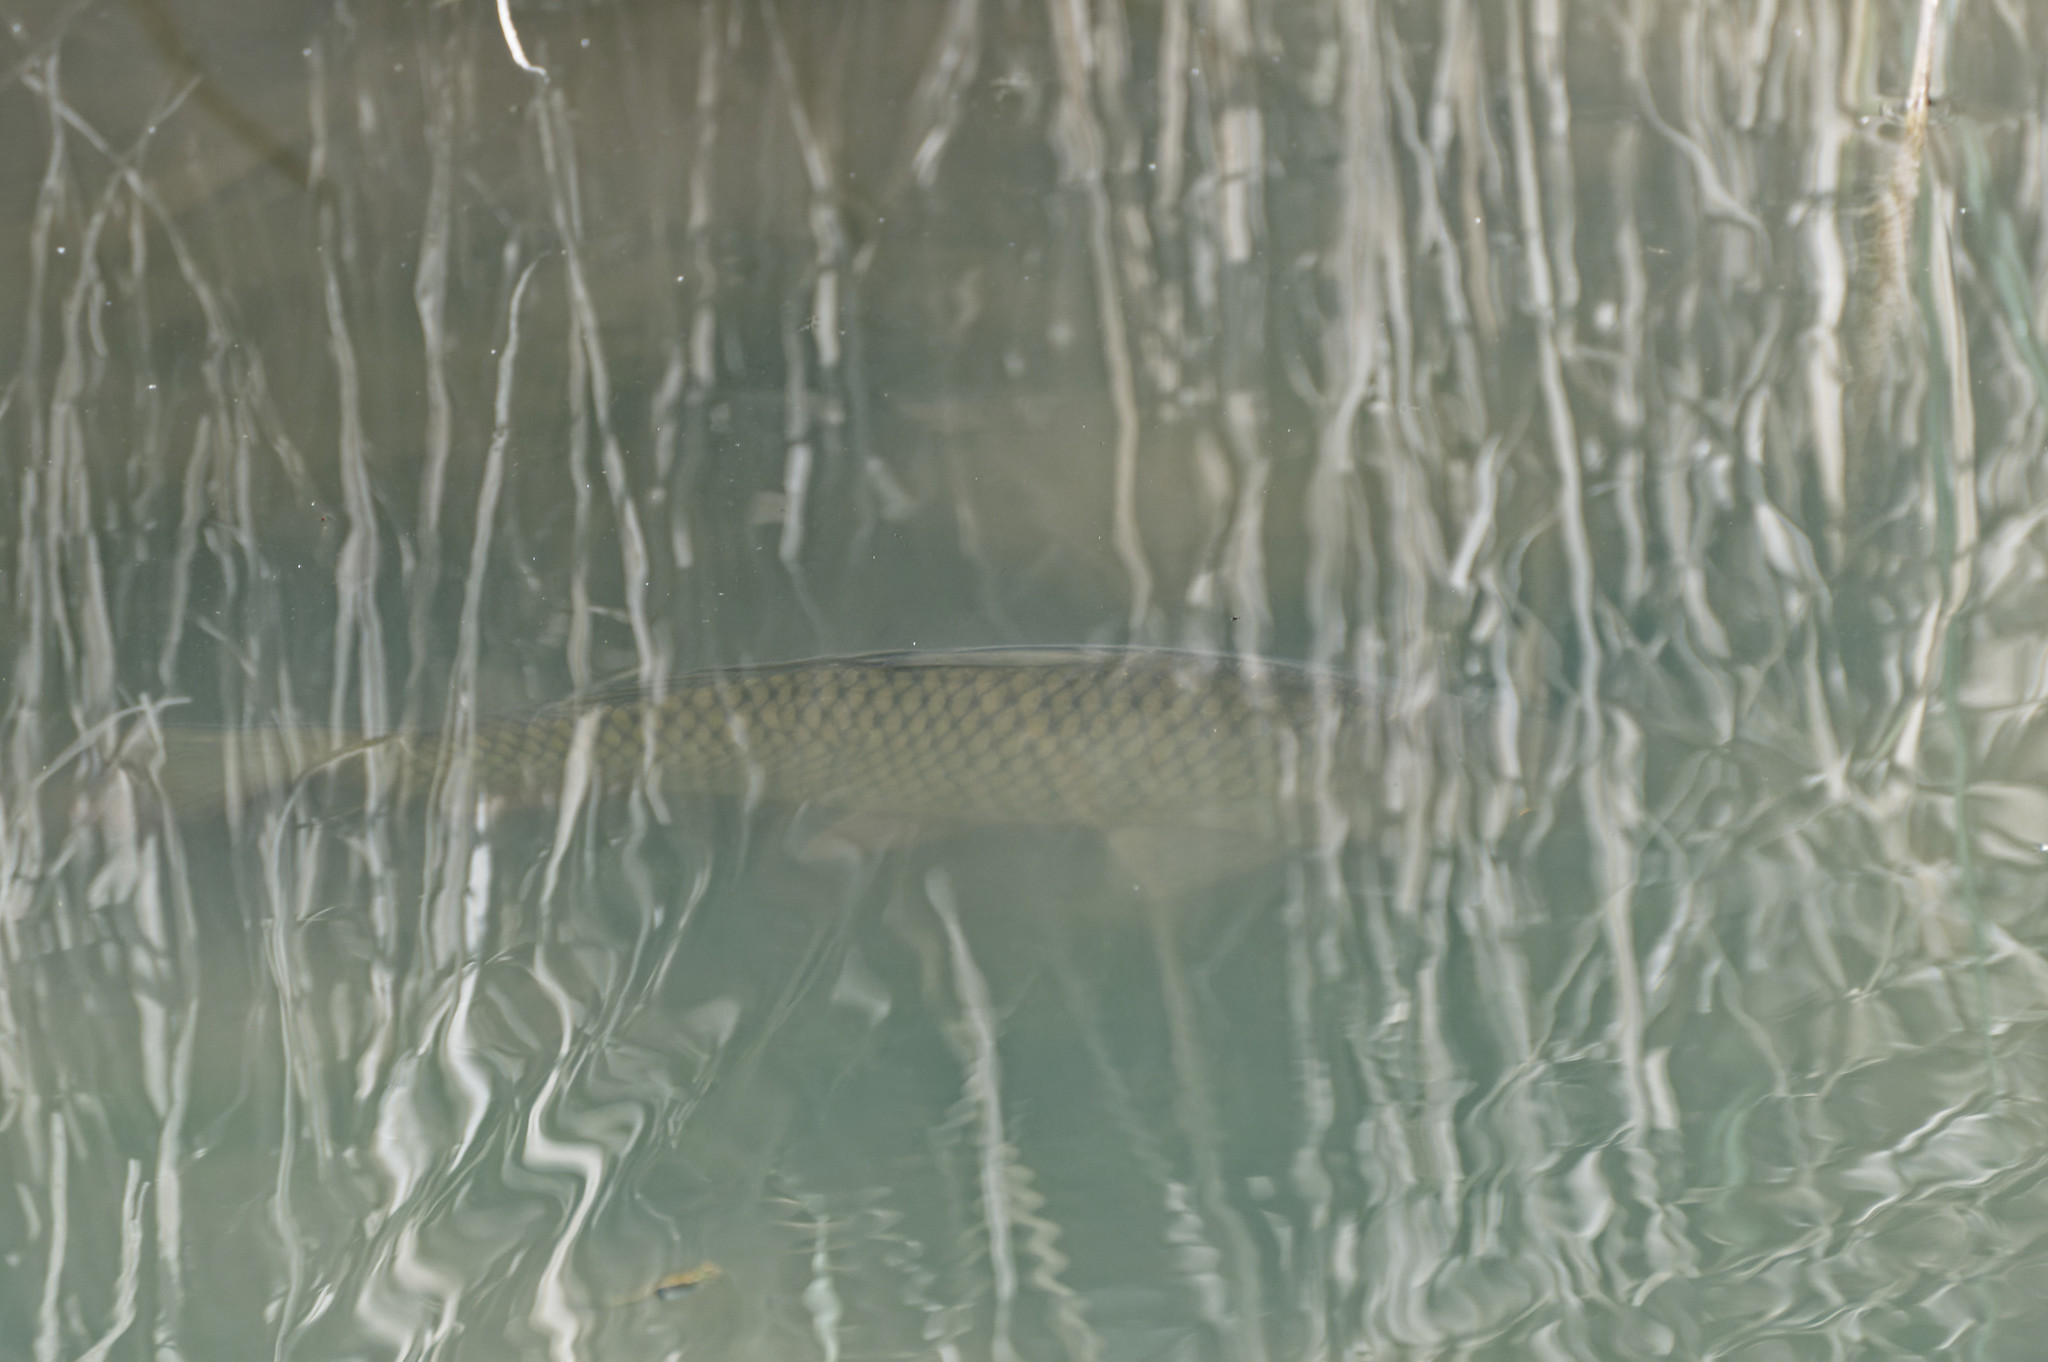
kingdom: Animalia
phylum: Chordata
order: Cypriniformes
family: Cyprinidae
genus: Cyprinus
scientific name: Cyprinus carpio
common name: Common carp
